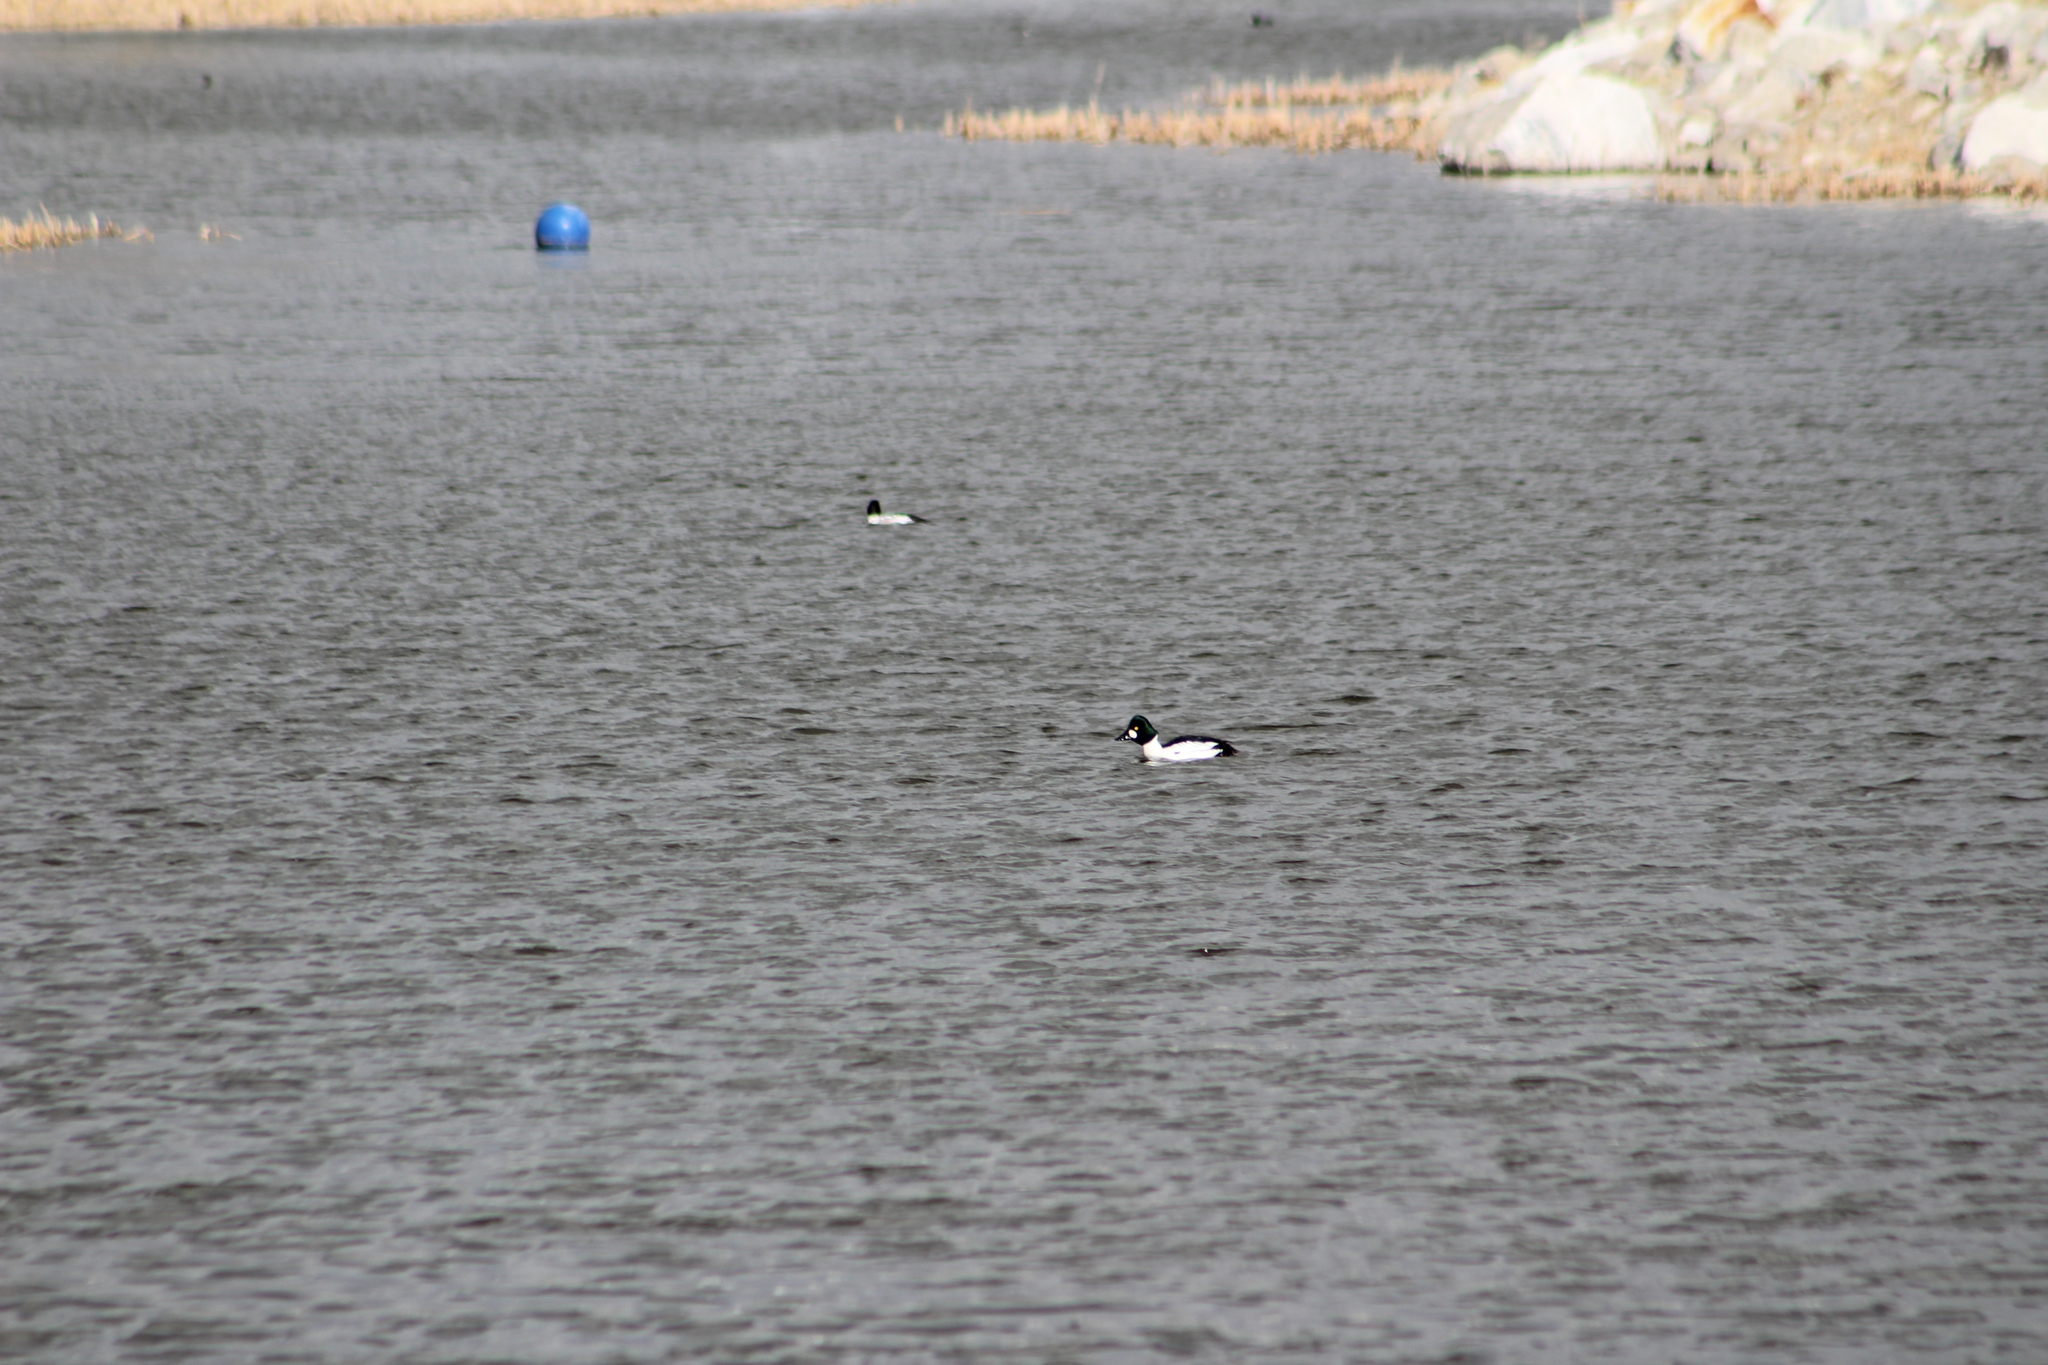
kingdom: Animalia
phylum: Chordata
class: Aves
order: Anseriformes
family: Anatidae
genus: Bucephala
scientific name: Bucephala clangula
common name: Common goldeneye
